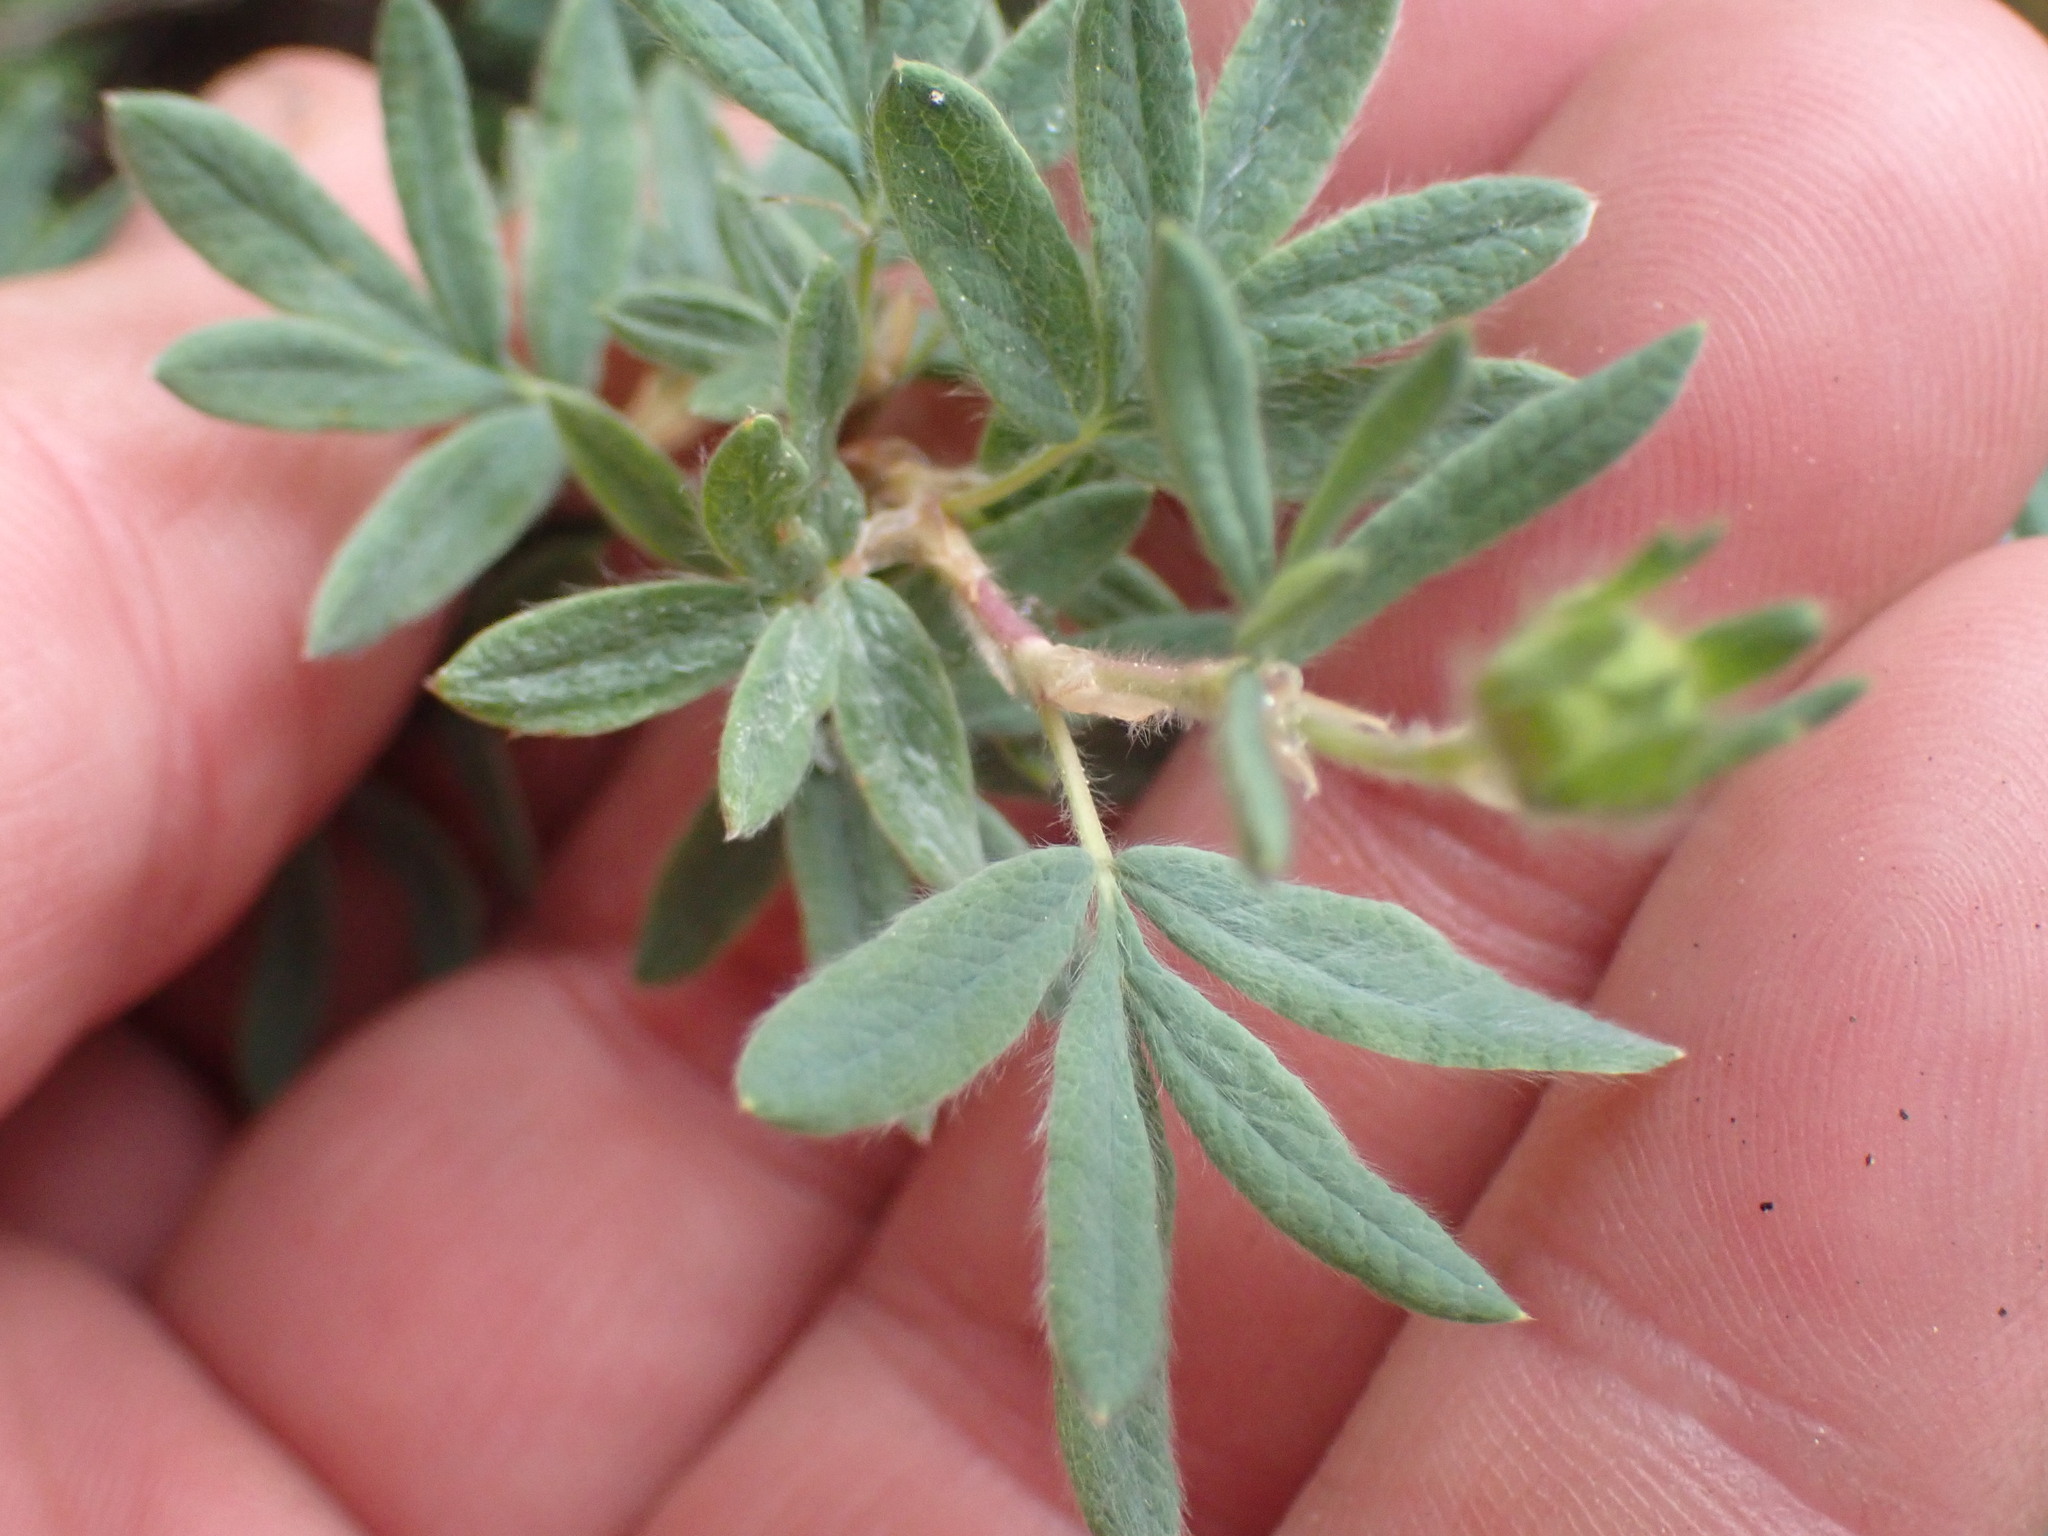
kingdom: Plantae
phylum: Tracheophyta
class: Magnoliopsida
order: Rosales
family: Rosaceae
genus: Dasiphora
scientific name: Dasiphora fruticosa
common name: Shrubby cinquefoil
